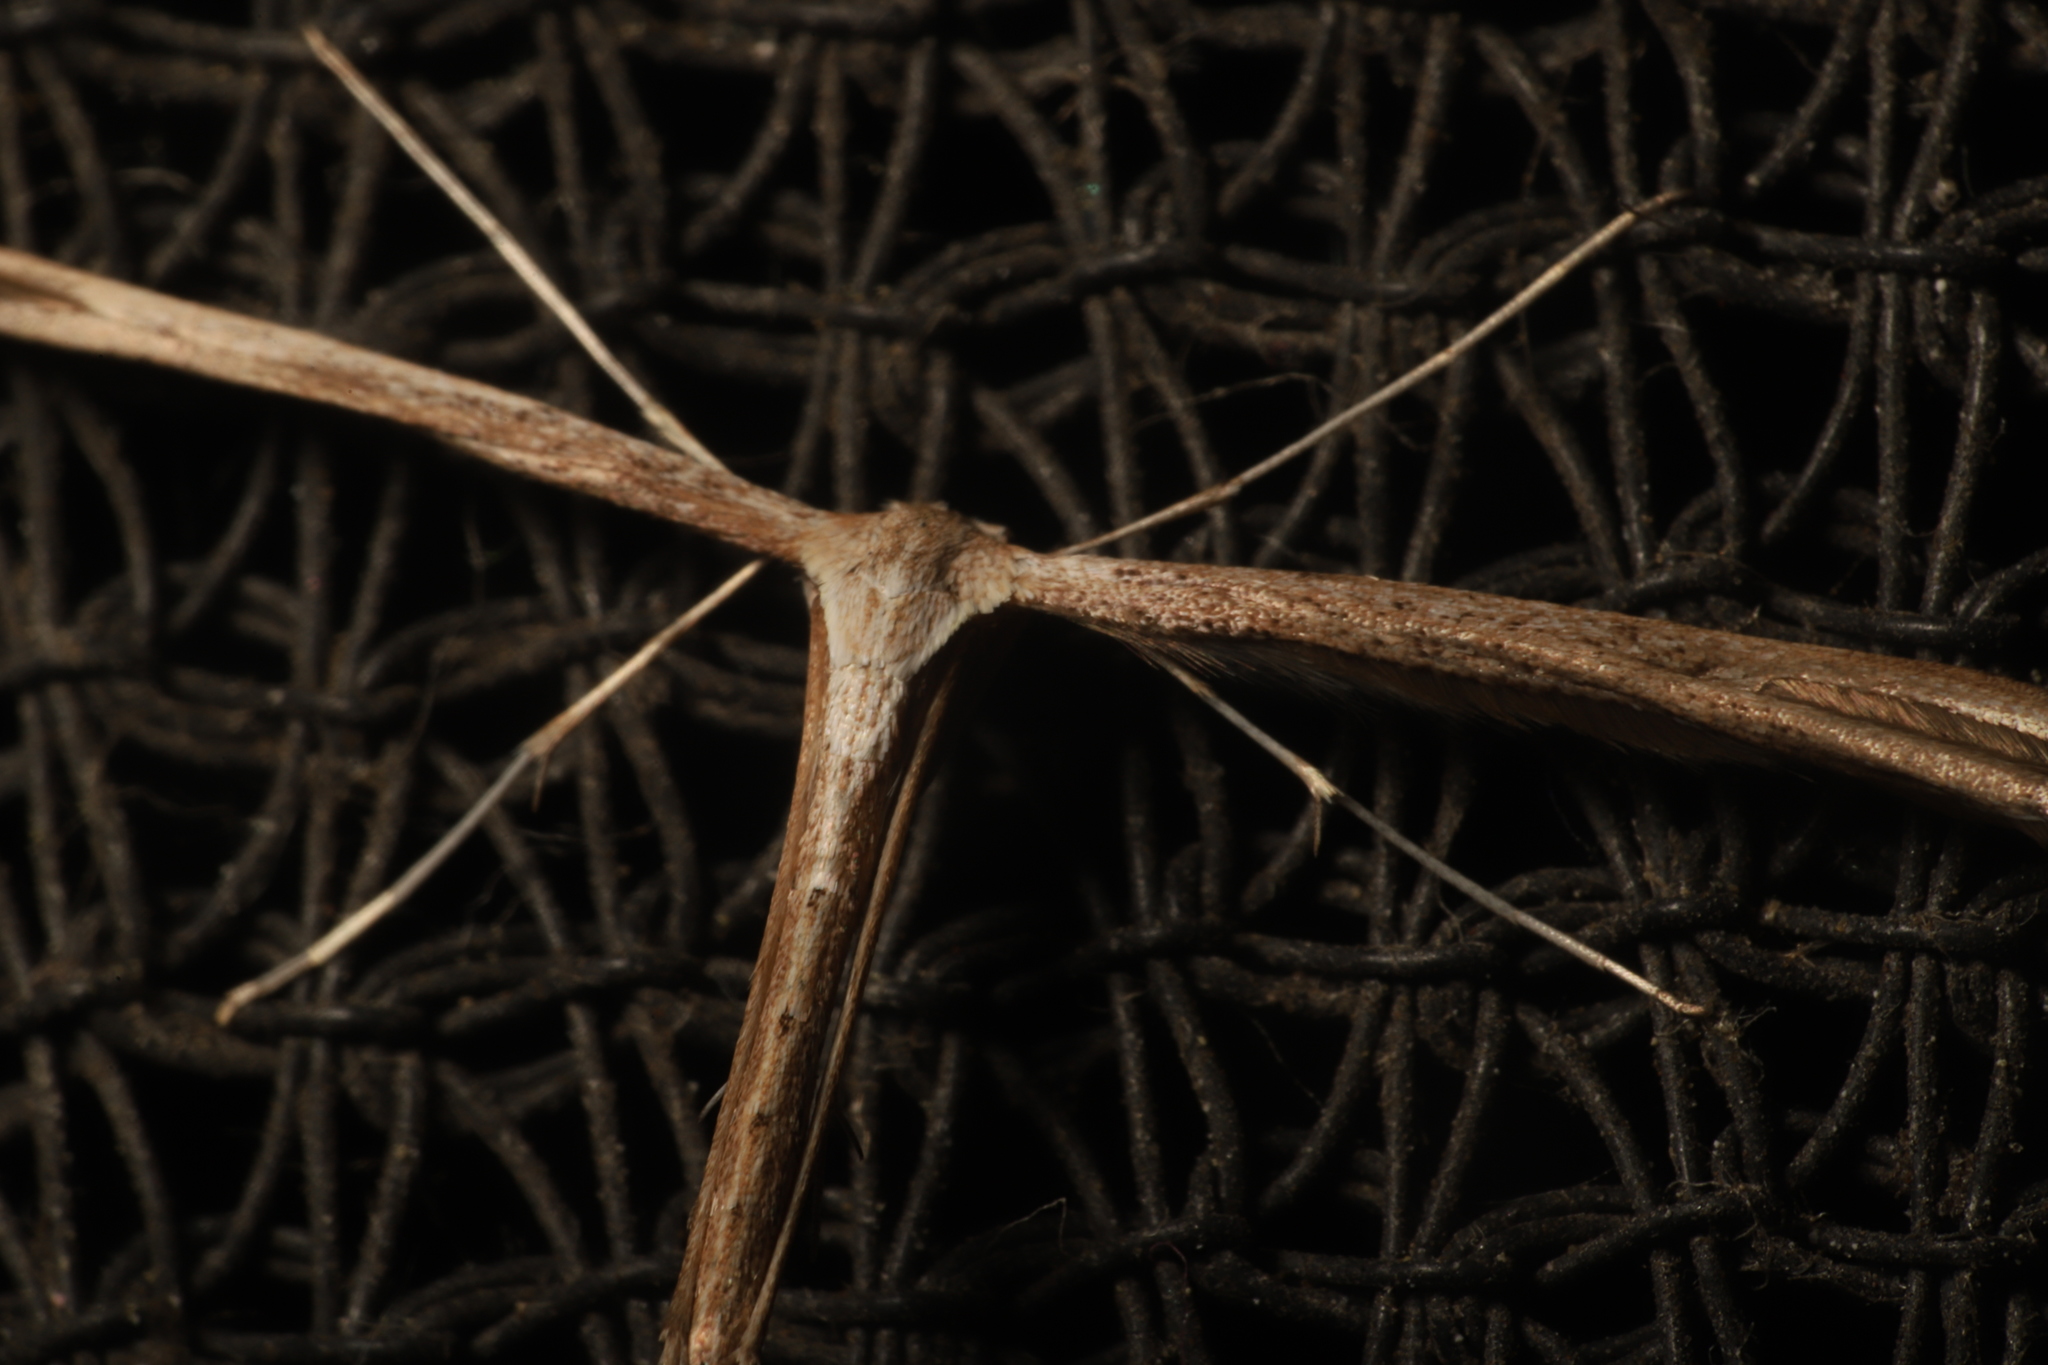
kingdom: Animalia
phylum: Arthropoda
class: Insecta
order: Lepidoptera
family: Pterophoridae
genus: Emmelina
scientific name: Emmelina monodactyla
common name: Common plume
